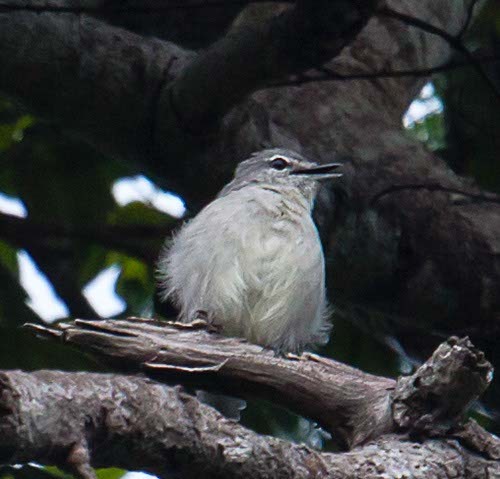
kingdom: Animalia
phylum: Chordata
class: Aves
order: Passeriformes
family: Muscicapidae
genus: Muscicapa
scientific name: Muscicapa caerulescens
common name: Ashy flycatcher
